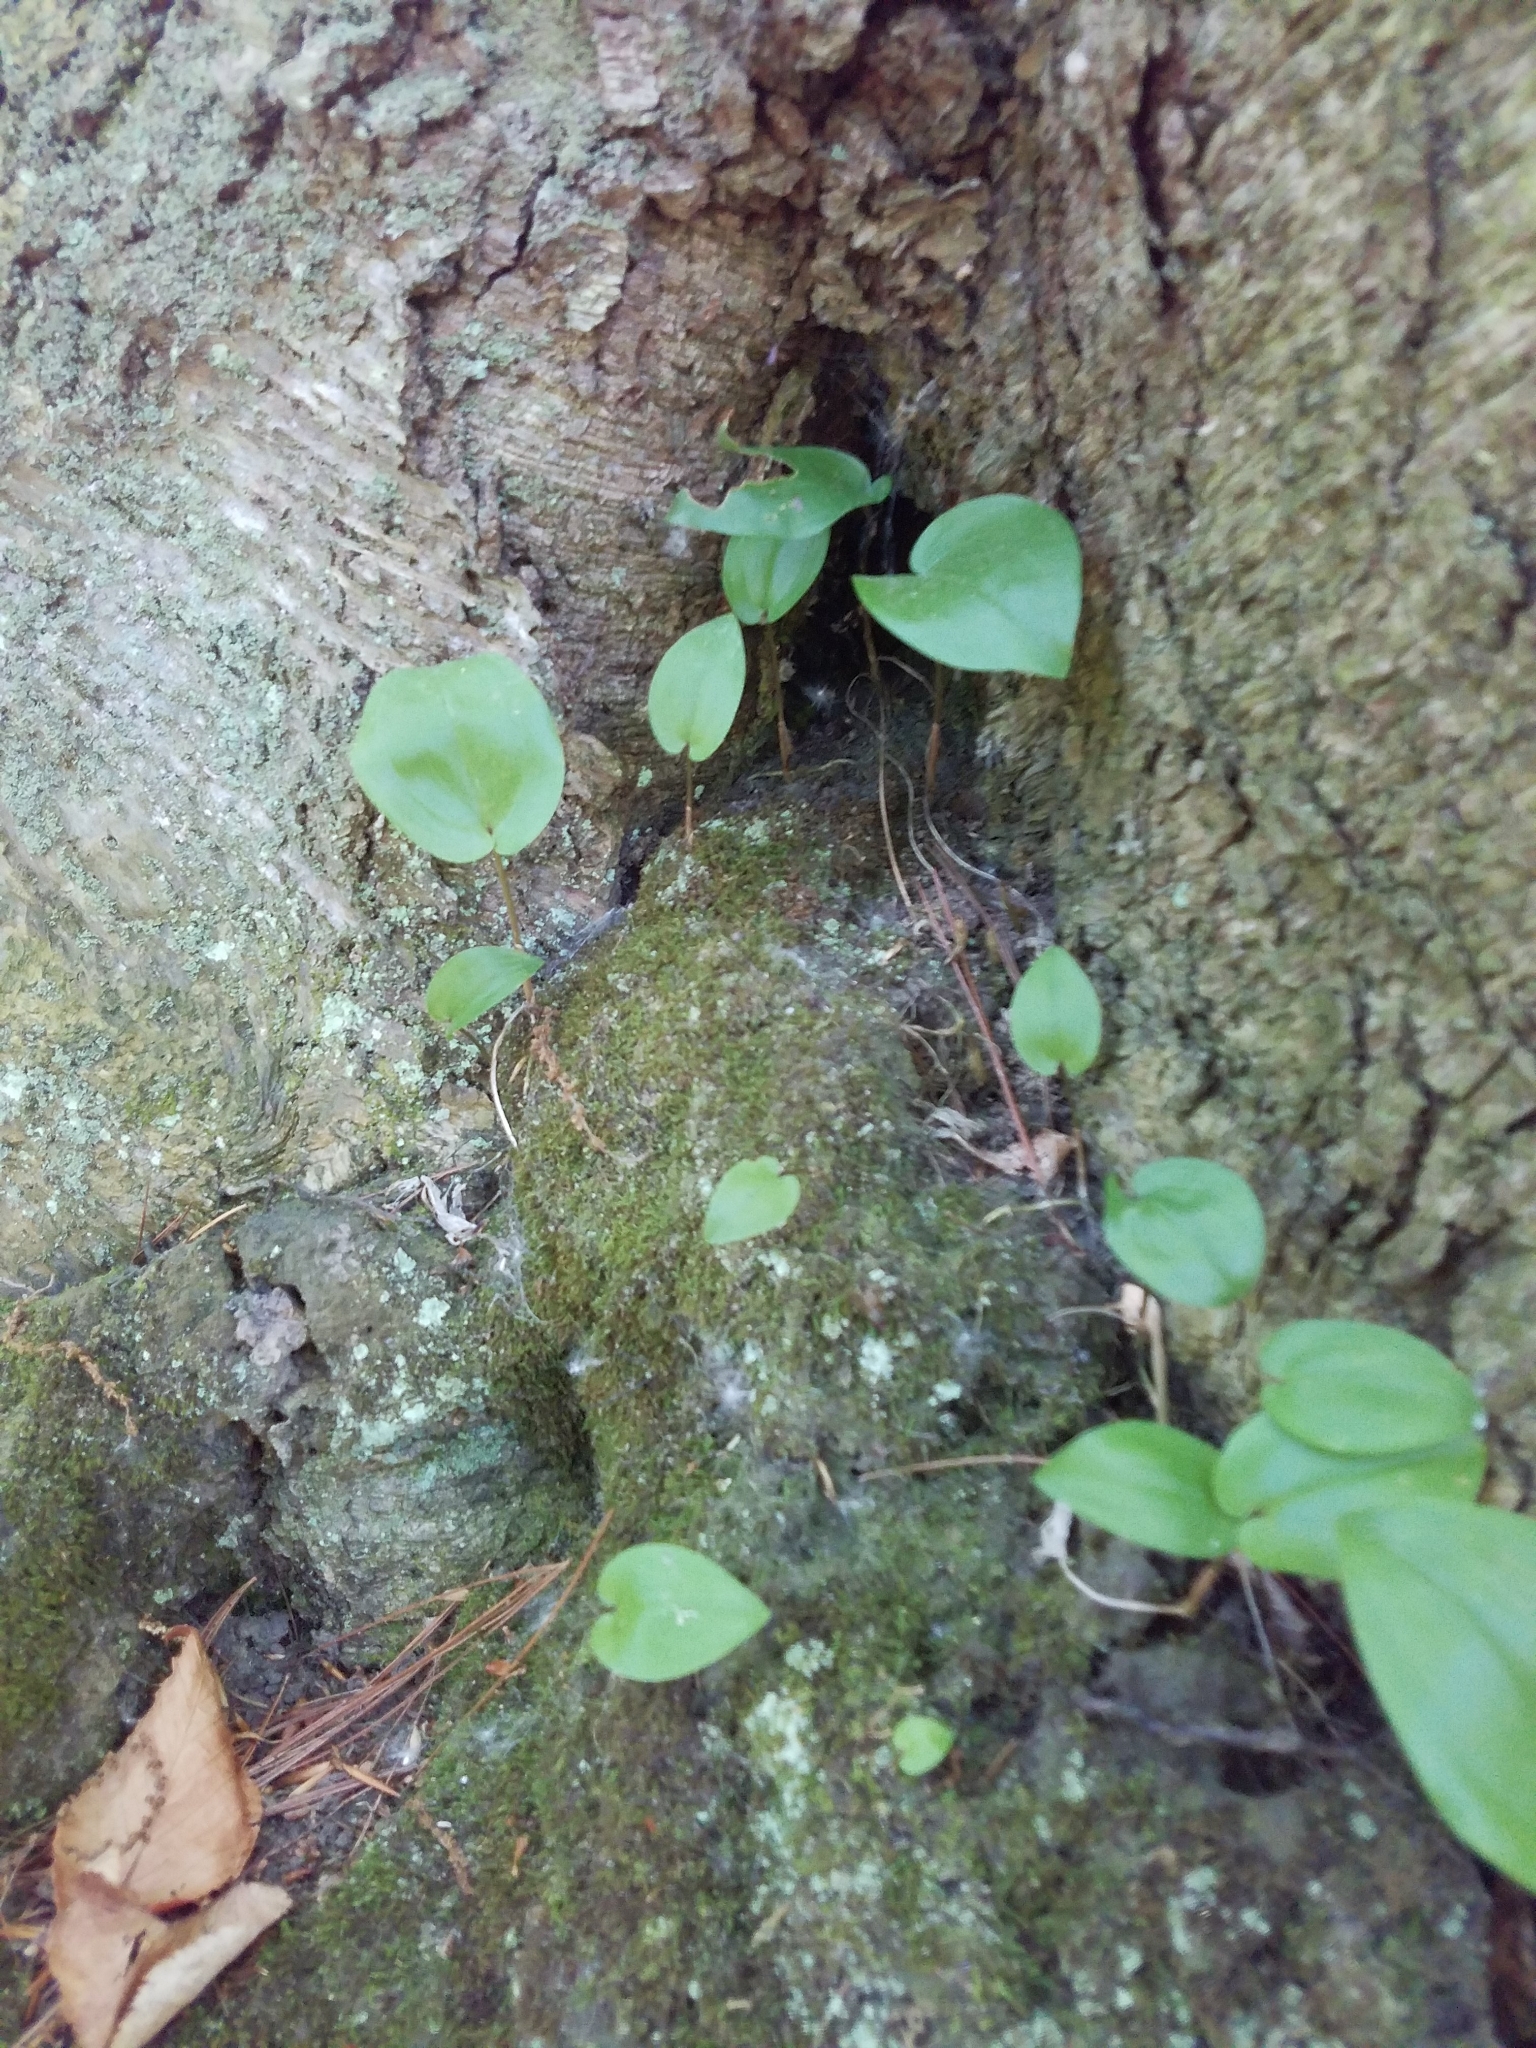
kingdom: Plantae
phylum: Tracheophyta
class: Liliopsida
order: Asparagales
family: Asparagaceae
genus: Maianthemum
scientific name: Maianthemum canadense
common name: False lily-of-the-valley
